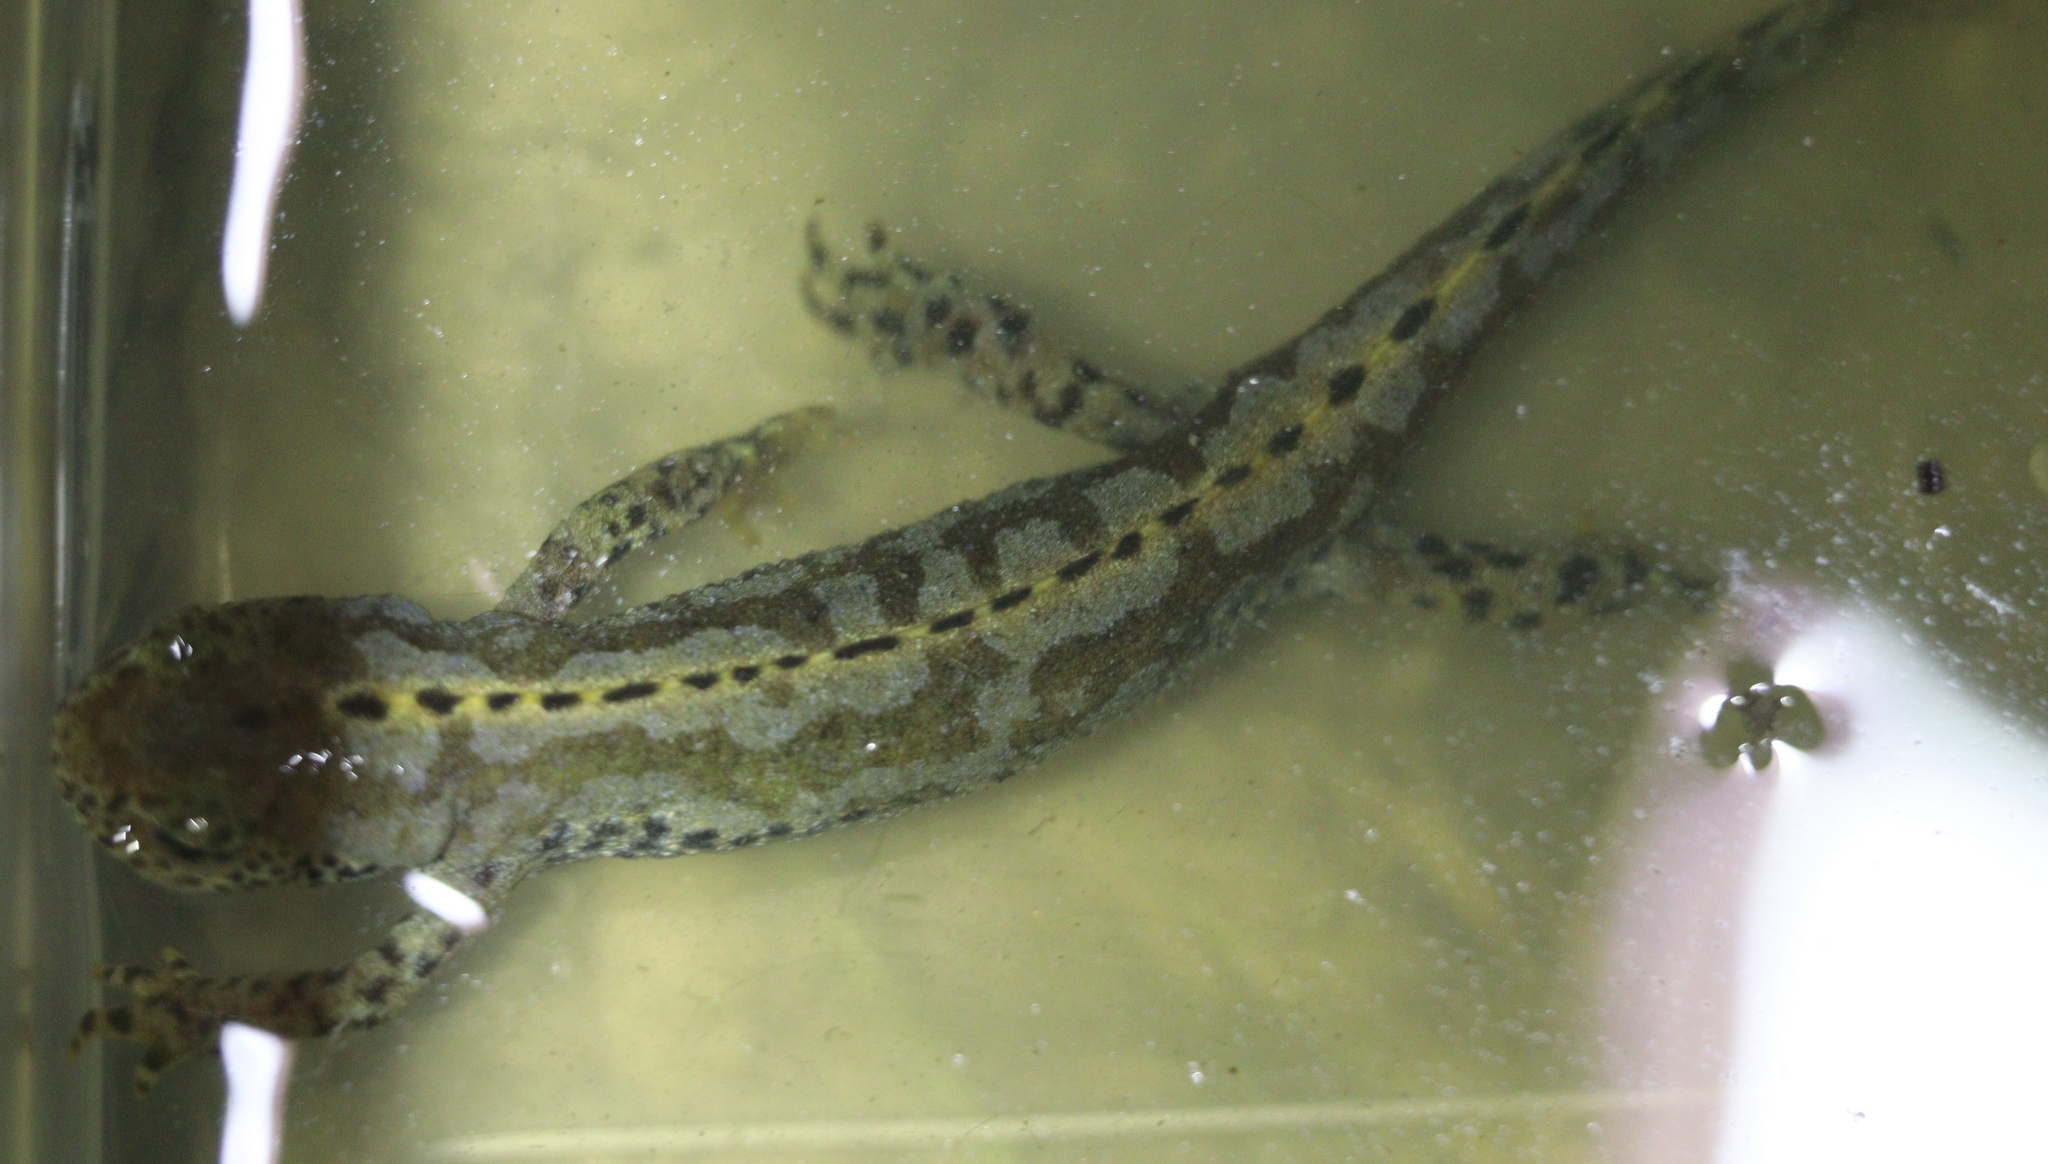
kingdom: Animalia
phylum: Chordata
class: Amphibia
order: Caudata
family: Salamandridae
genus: Ichthyosaura
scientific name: Ichthyosaura alpestris
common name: Alpine newt
